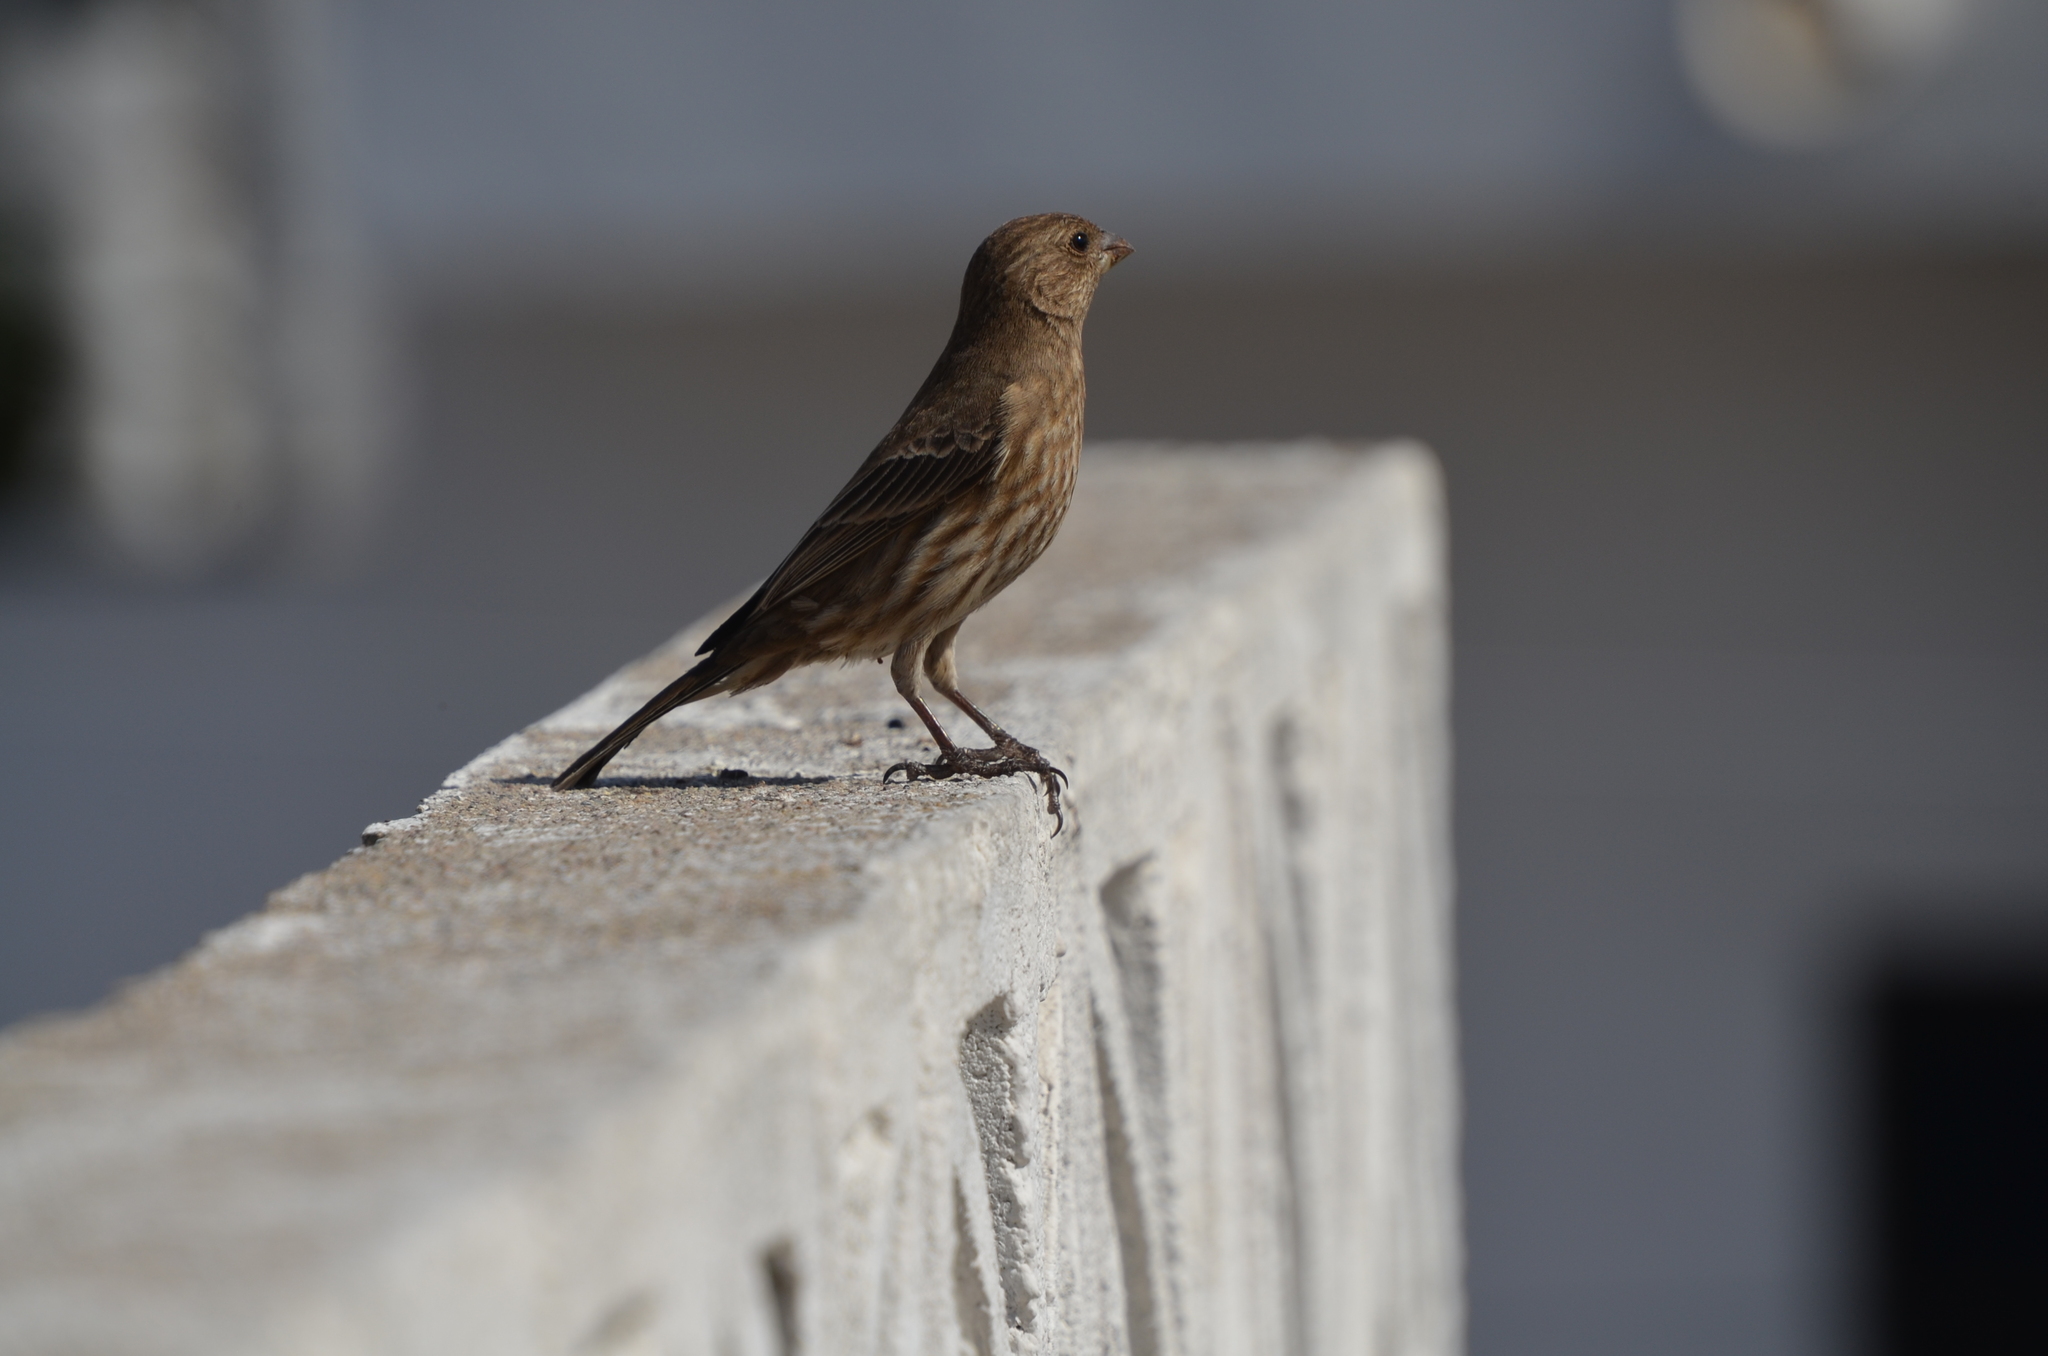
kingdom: Animalia
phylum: Chordata
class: Aves
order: Passeriformes
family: Fringillidae
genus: Haemorhous
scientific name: Haemorhous mexicanus
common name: House finch
